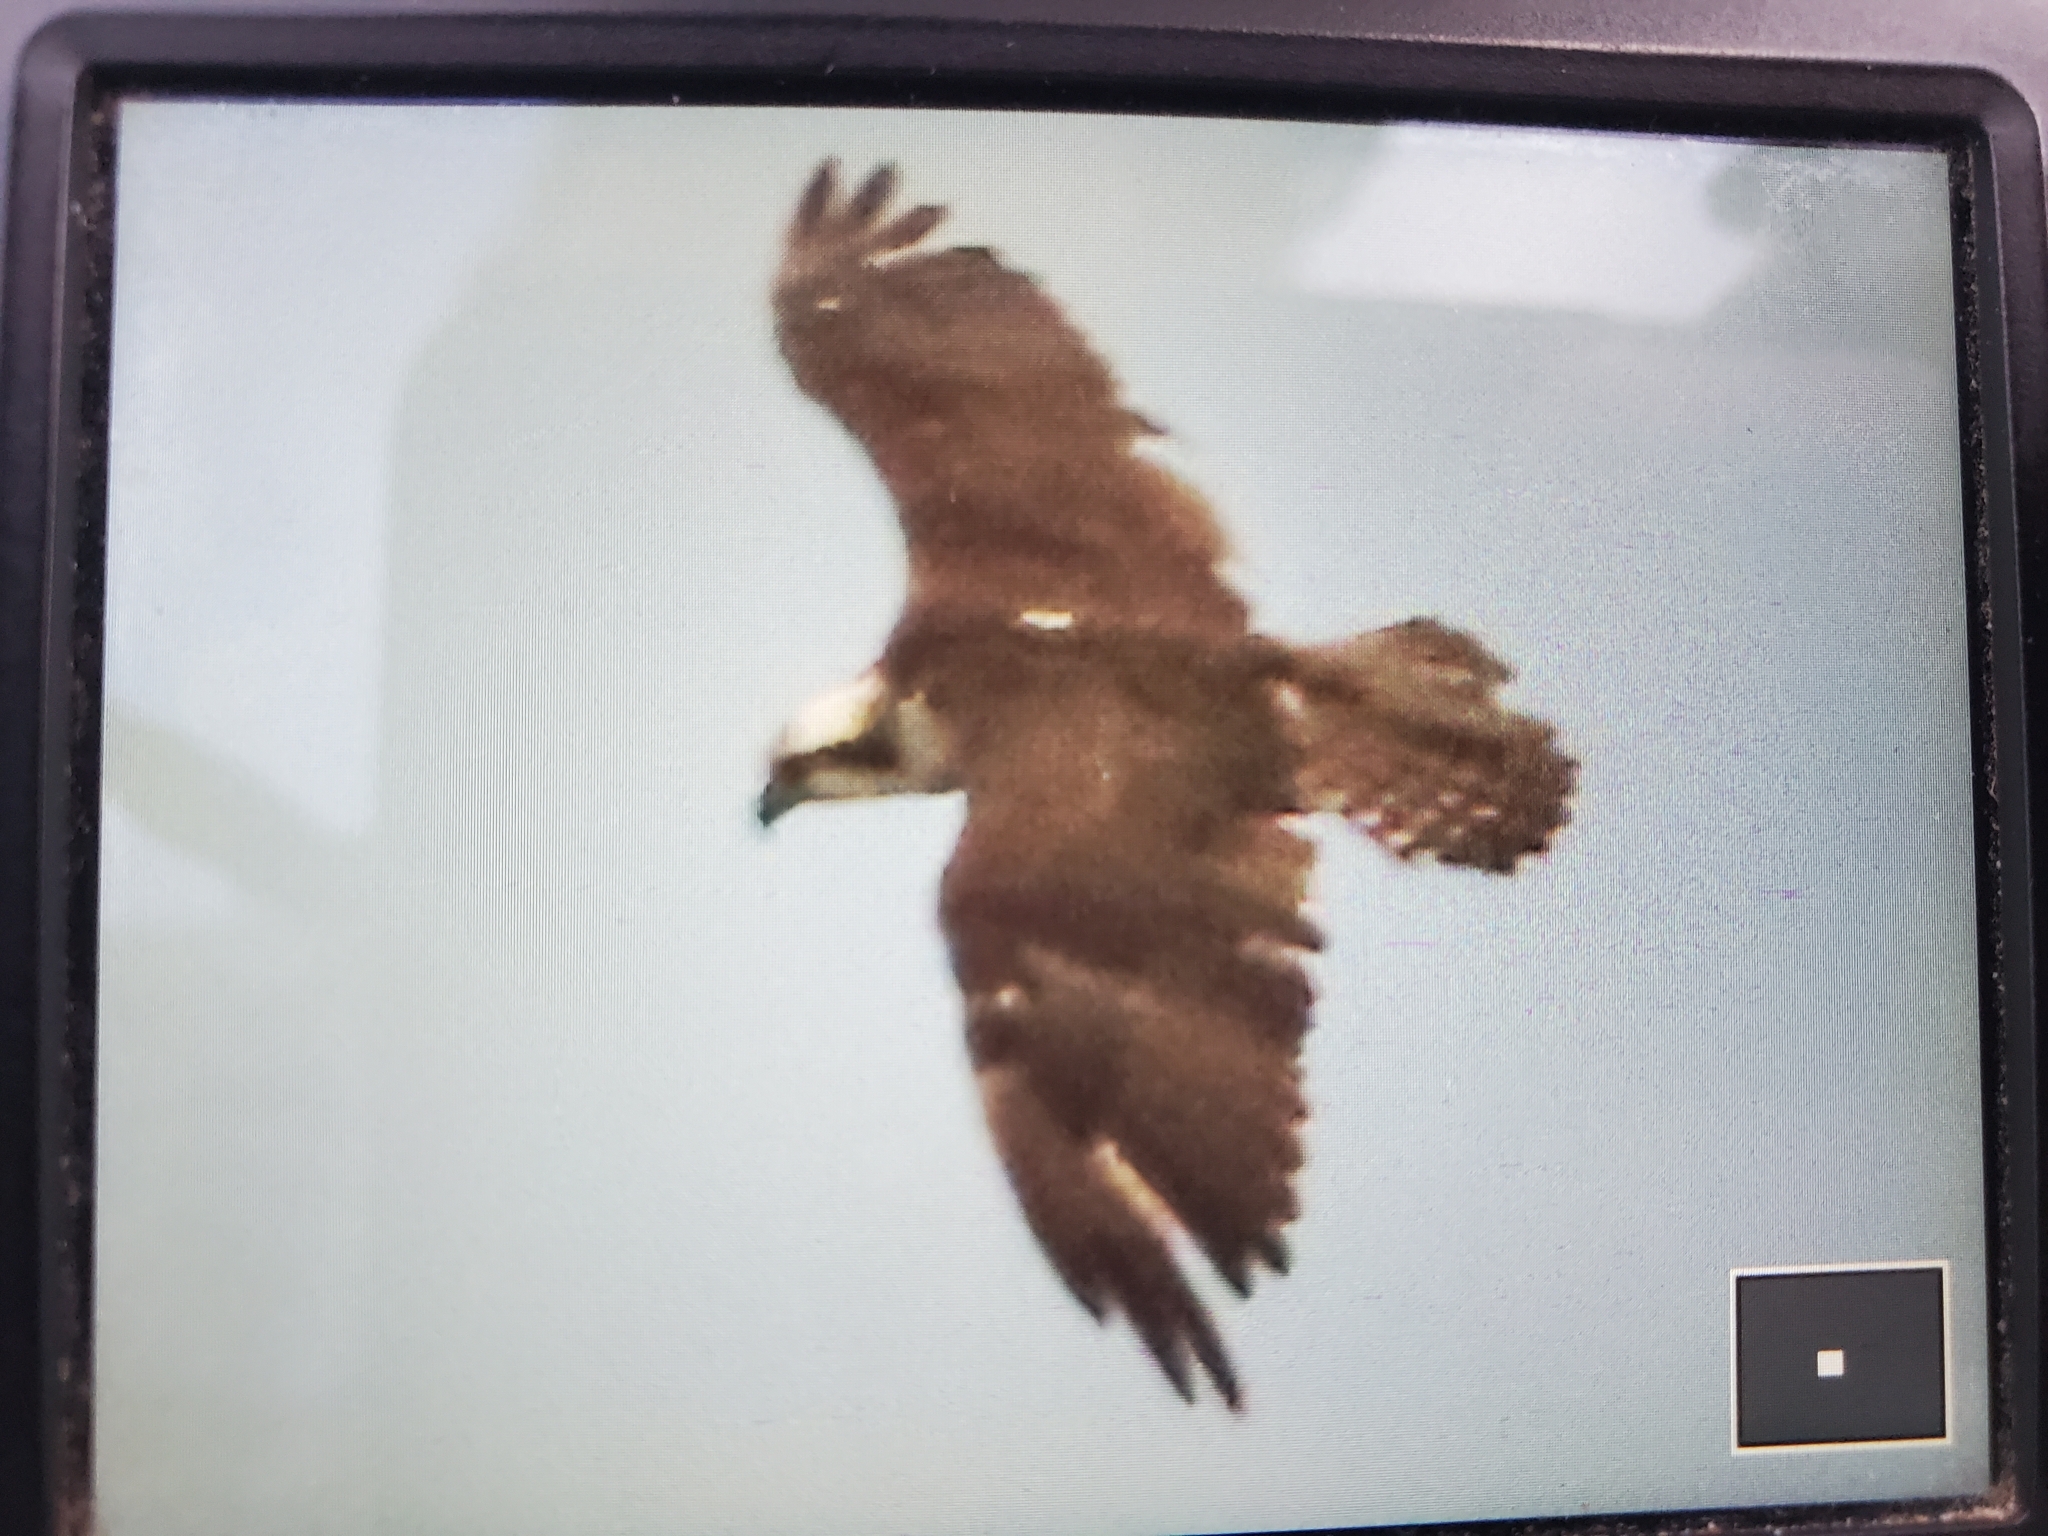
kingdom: Animalia
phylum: Chordata
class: Aves
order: Accipitriformes
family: Pandionidae
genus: Pandion
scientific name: Pandion haliaetus
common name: Osprey
